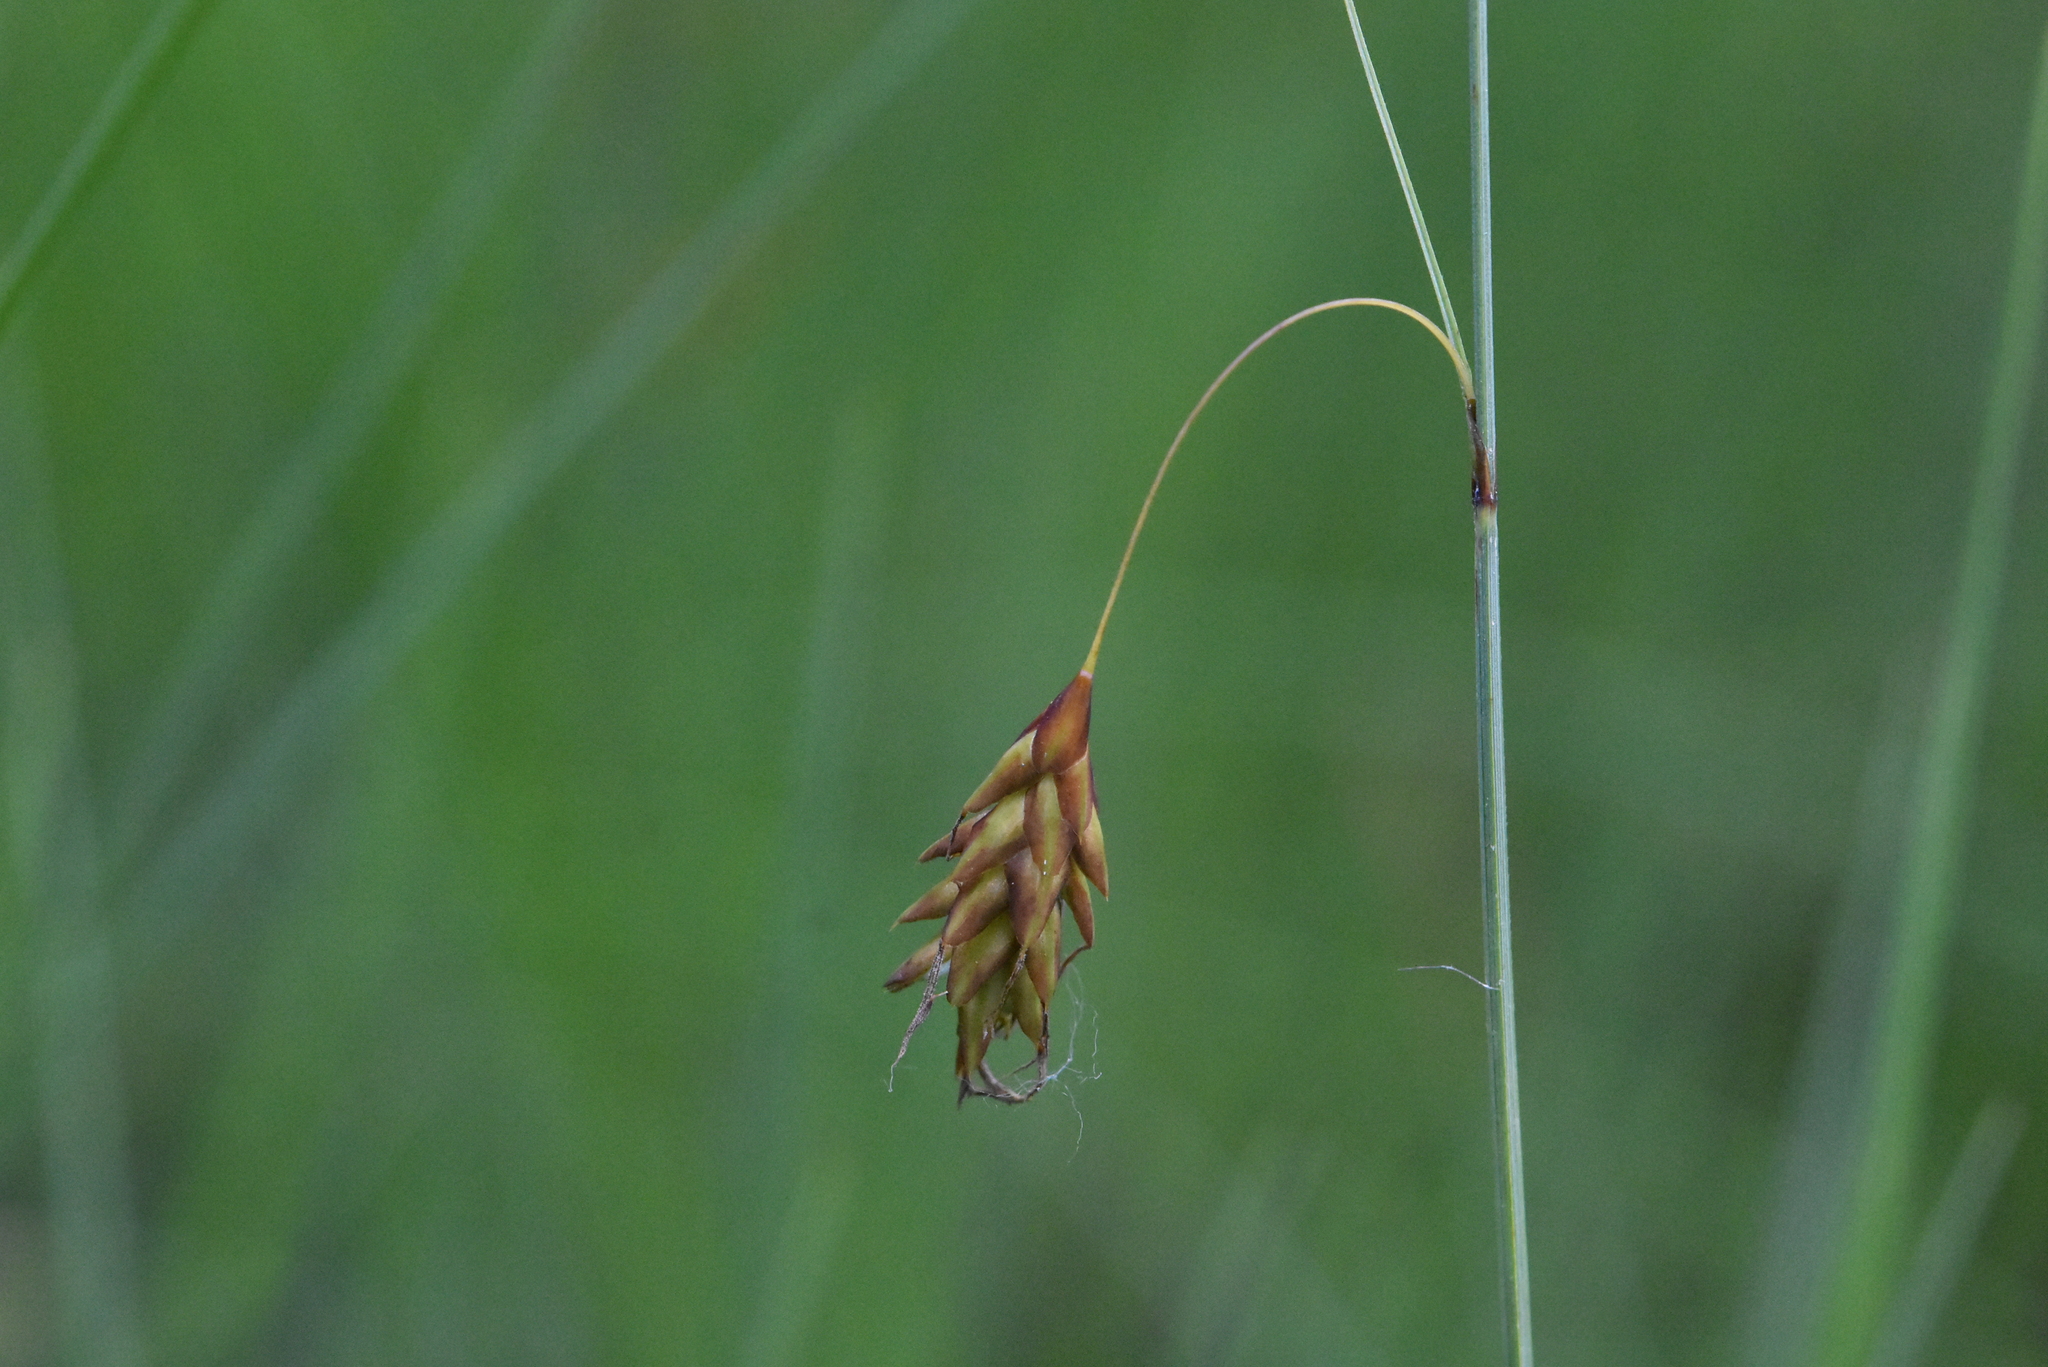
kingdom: Plantae
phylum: Tracheophyta
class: Liliopsida
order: Poales
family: Cyperaceae
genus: Carex
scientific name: Carex limosa
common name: Bog sedge
